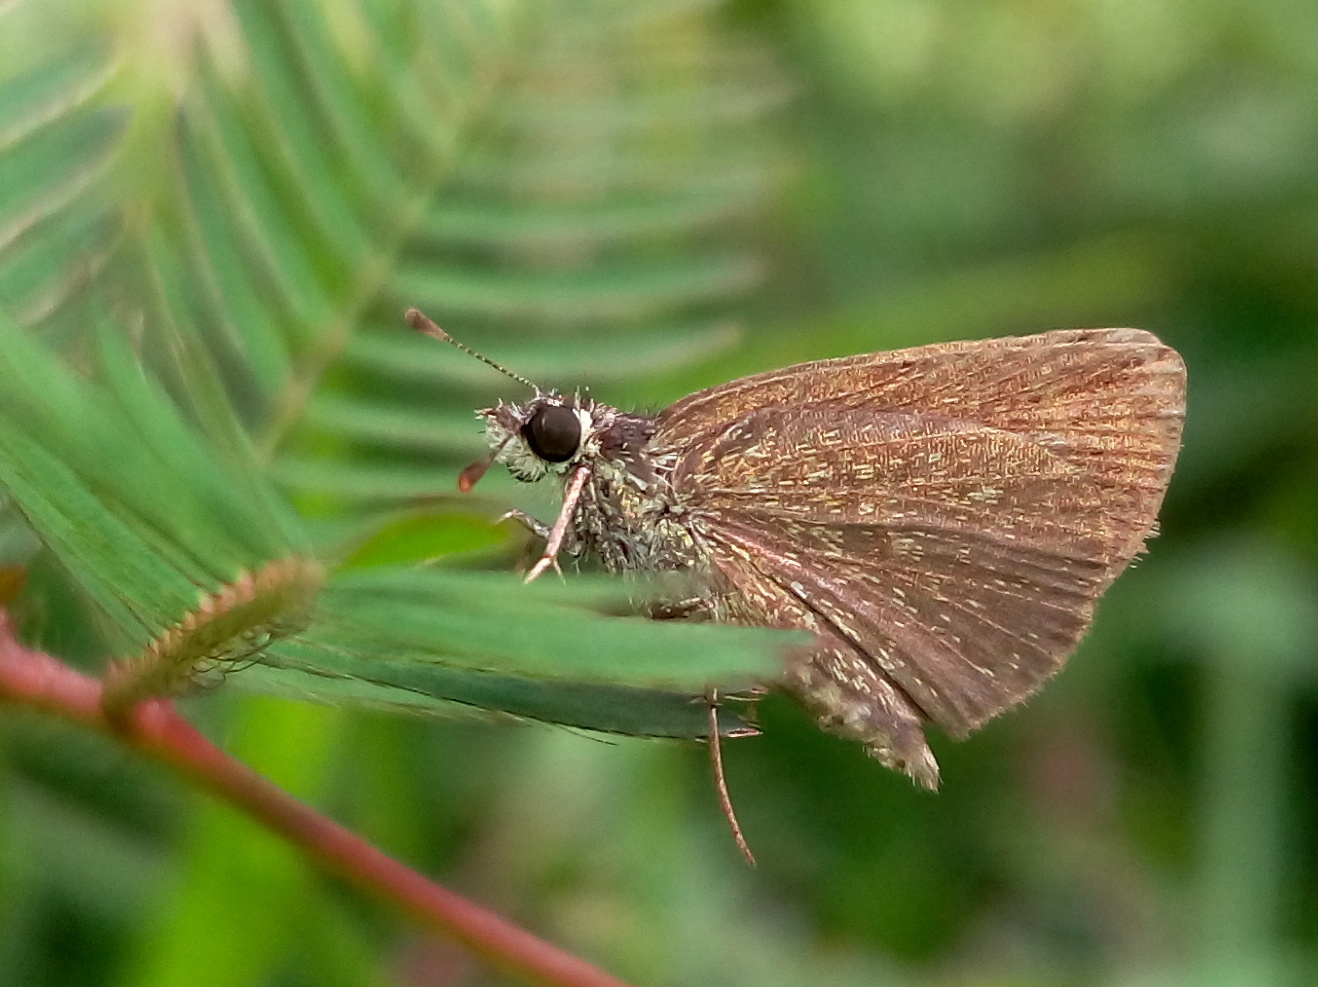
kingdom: Animalia
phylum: Arthropoda
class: Insecta
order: Lepidoptera
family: Hesperiidae
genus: Aeromachus
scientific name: Aeromachus pygmaeus
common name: Pygmy scrub hopper
